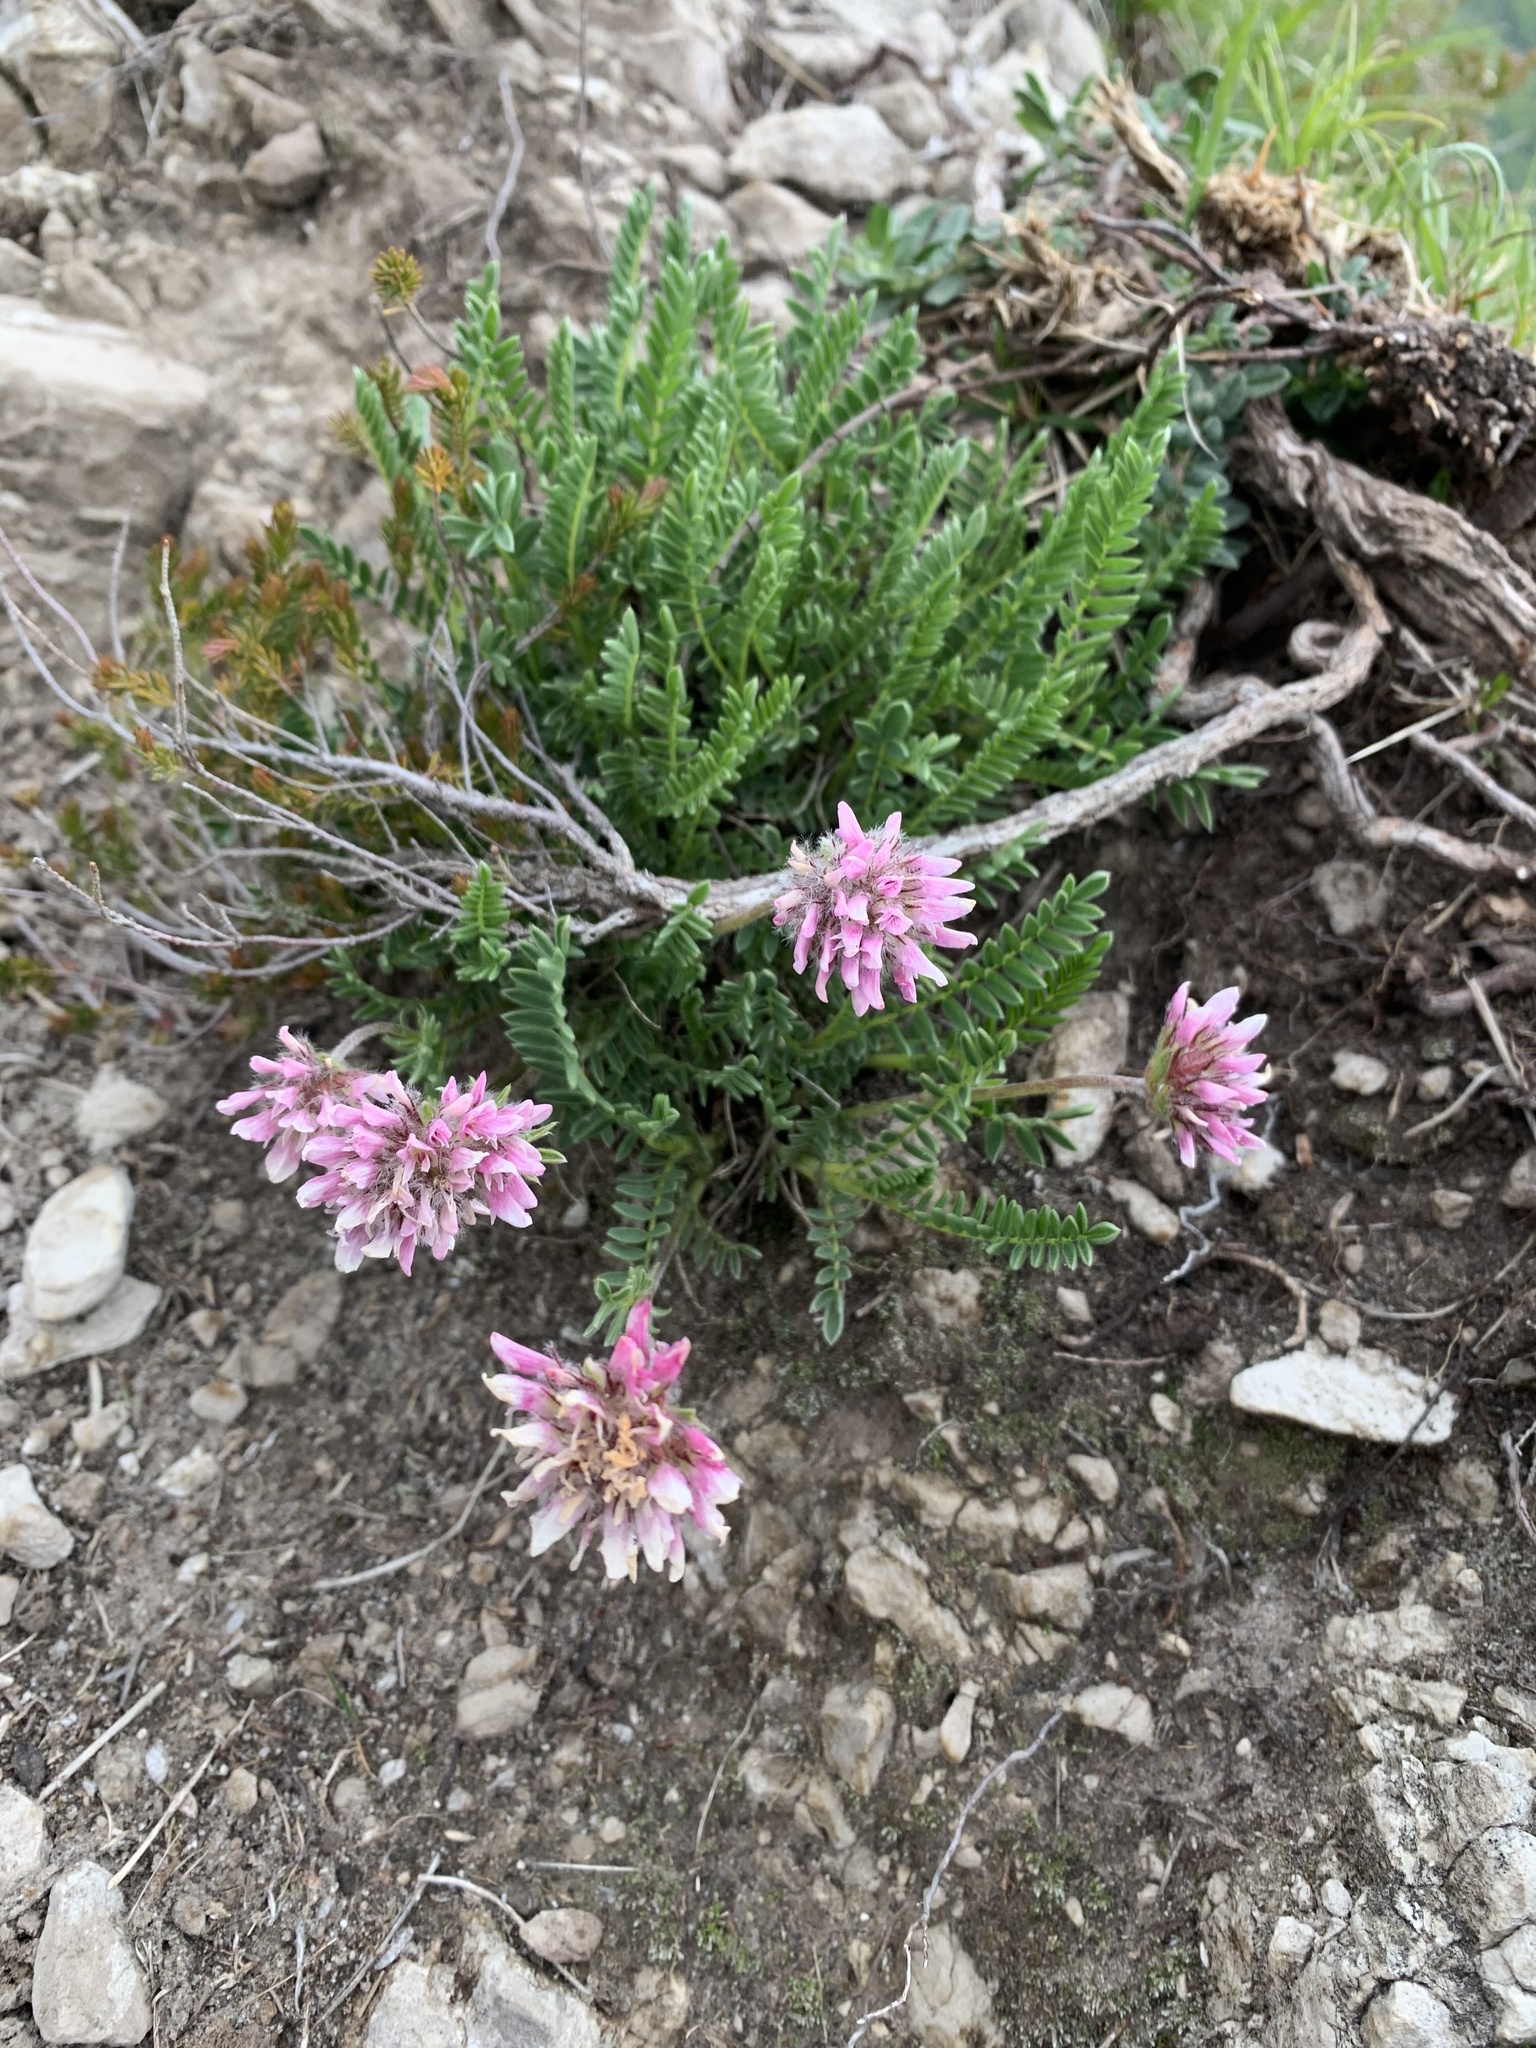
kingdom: Plantae
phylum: Tracheophyta
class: Magnoliopsida
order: Fabales
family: Fabaceae
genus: Anthyllis
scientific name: Anthyllis montana
